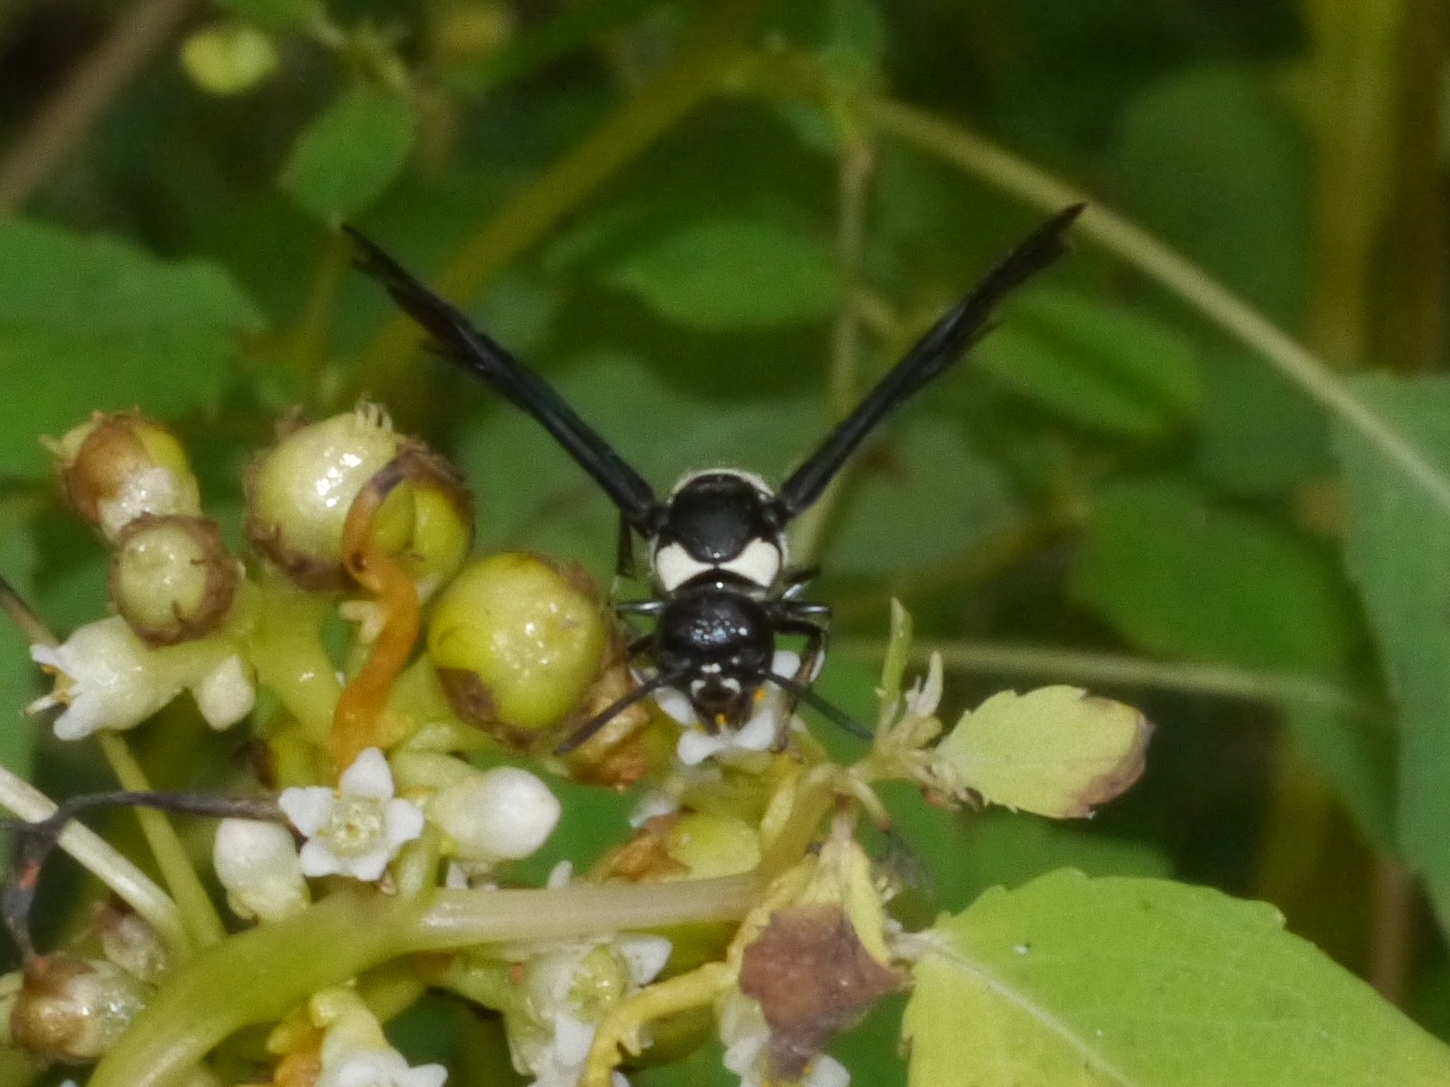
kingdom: Animalia
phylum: Arthropoda
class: Insecta
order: Hymenoptera
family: Eumenidae
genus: Pseudodynerus
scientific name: Pseudodynerus quadrisectus
